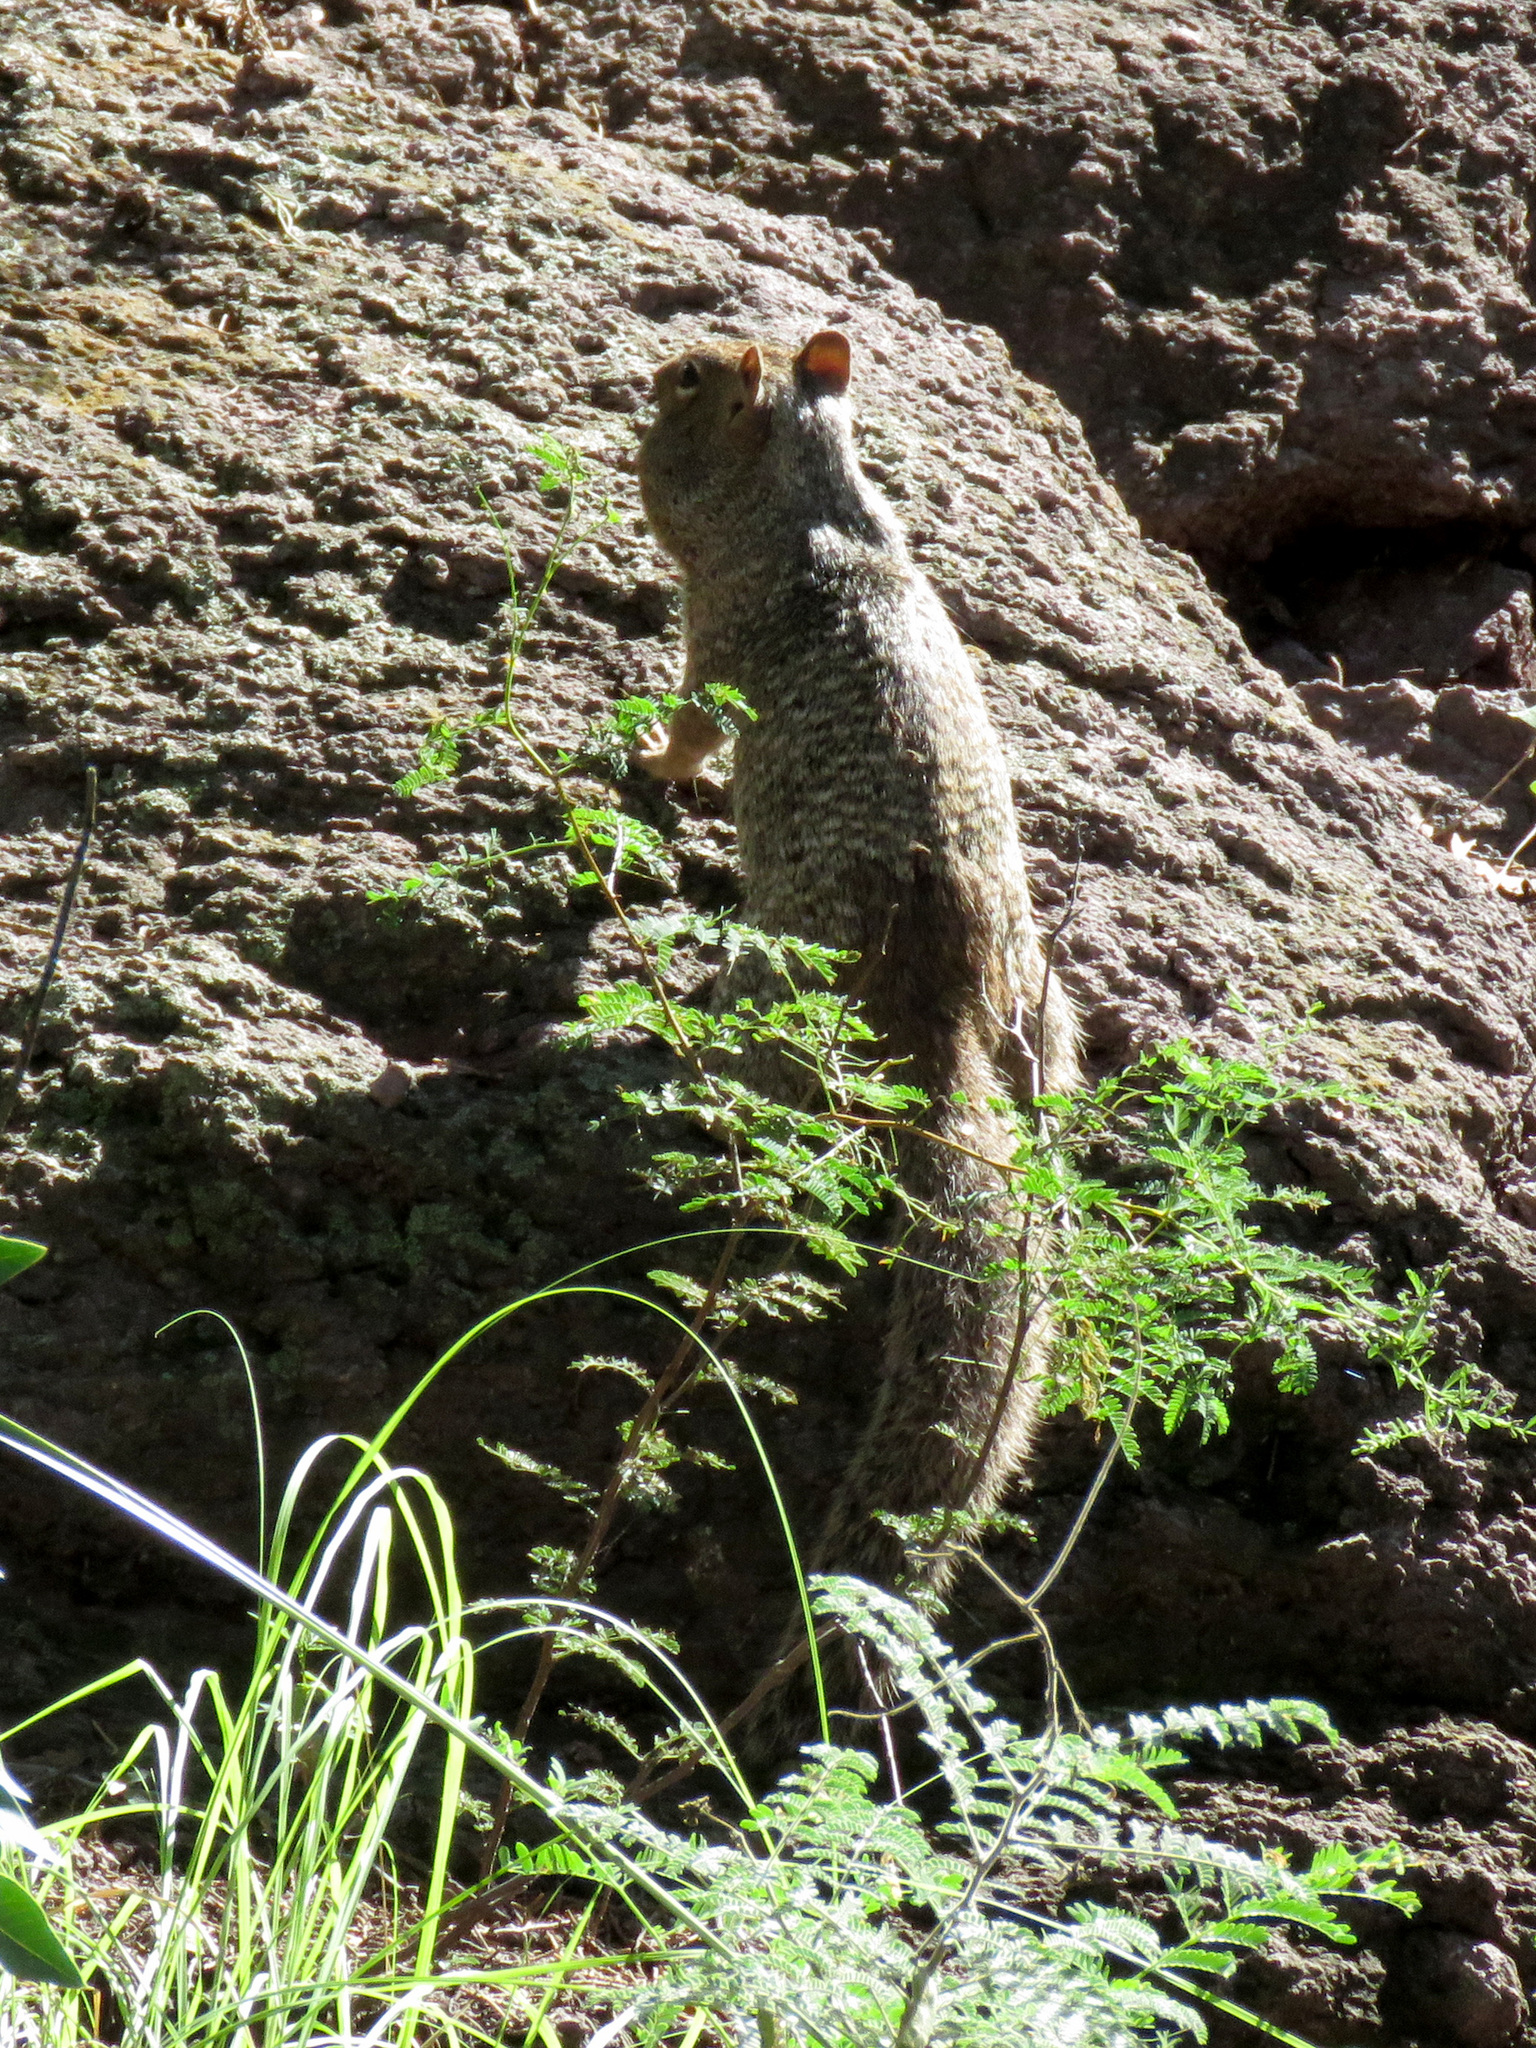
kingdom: Animalia
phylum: Chordata
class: Mammalia
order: Rodentia
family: Sciuridae
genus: Otospermophilus
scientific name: Otospermophilus variegatus
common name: Rock squirrel
